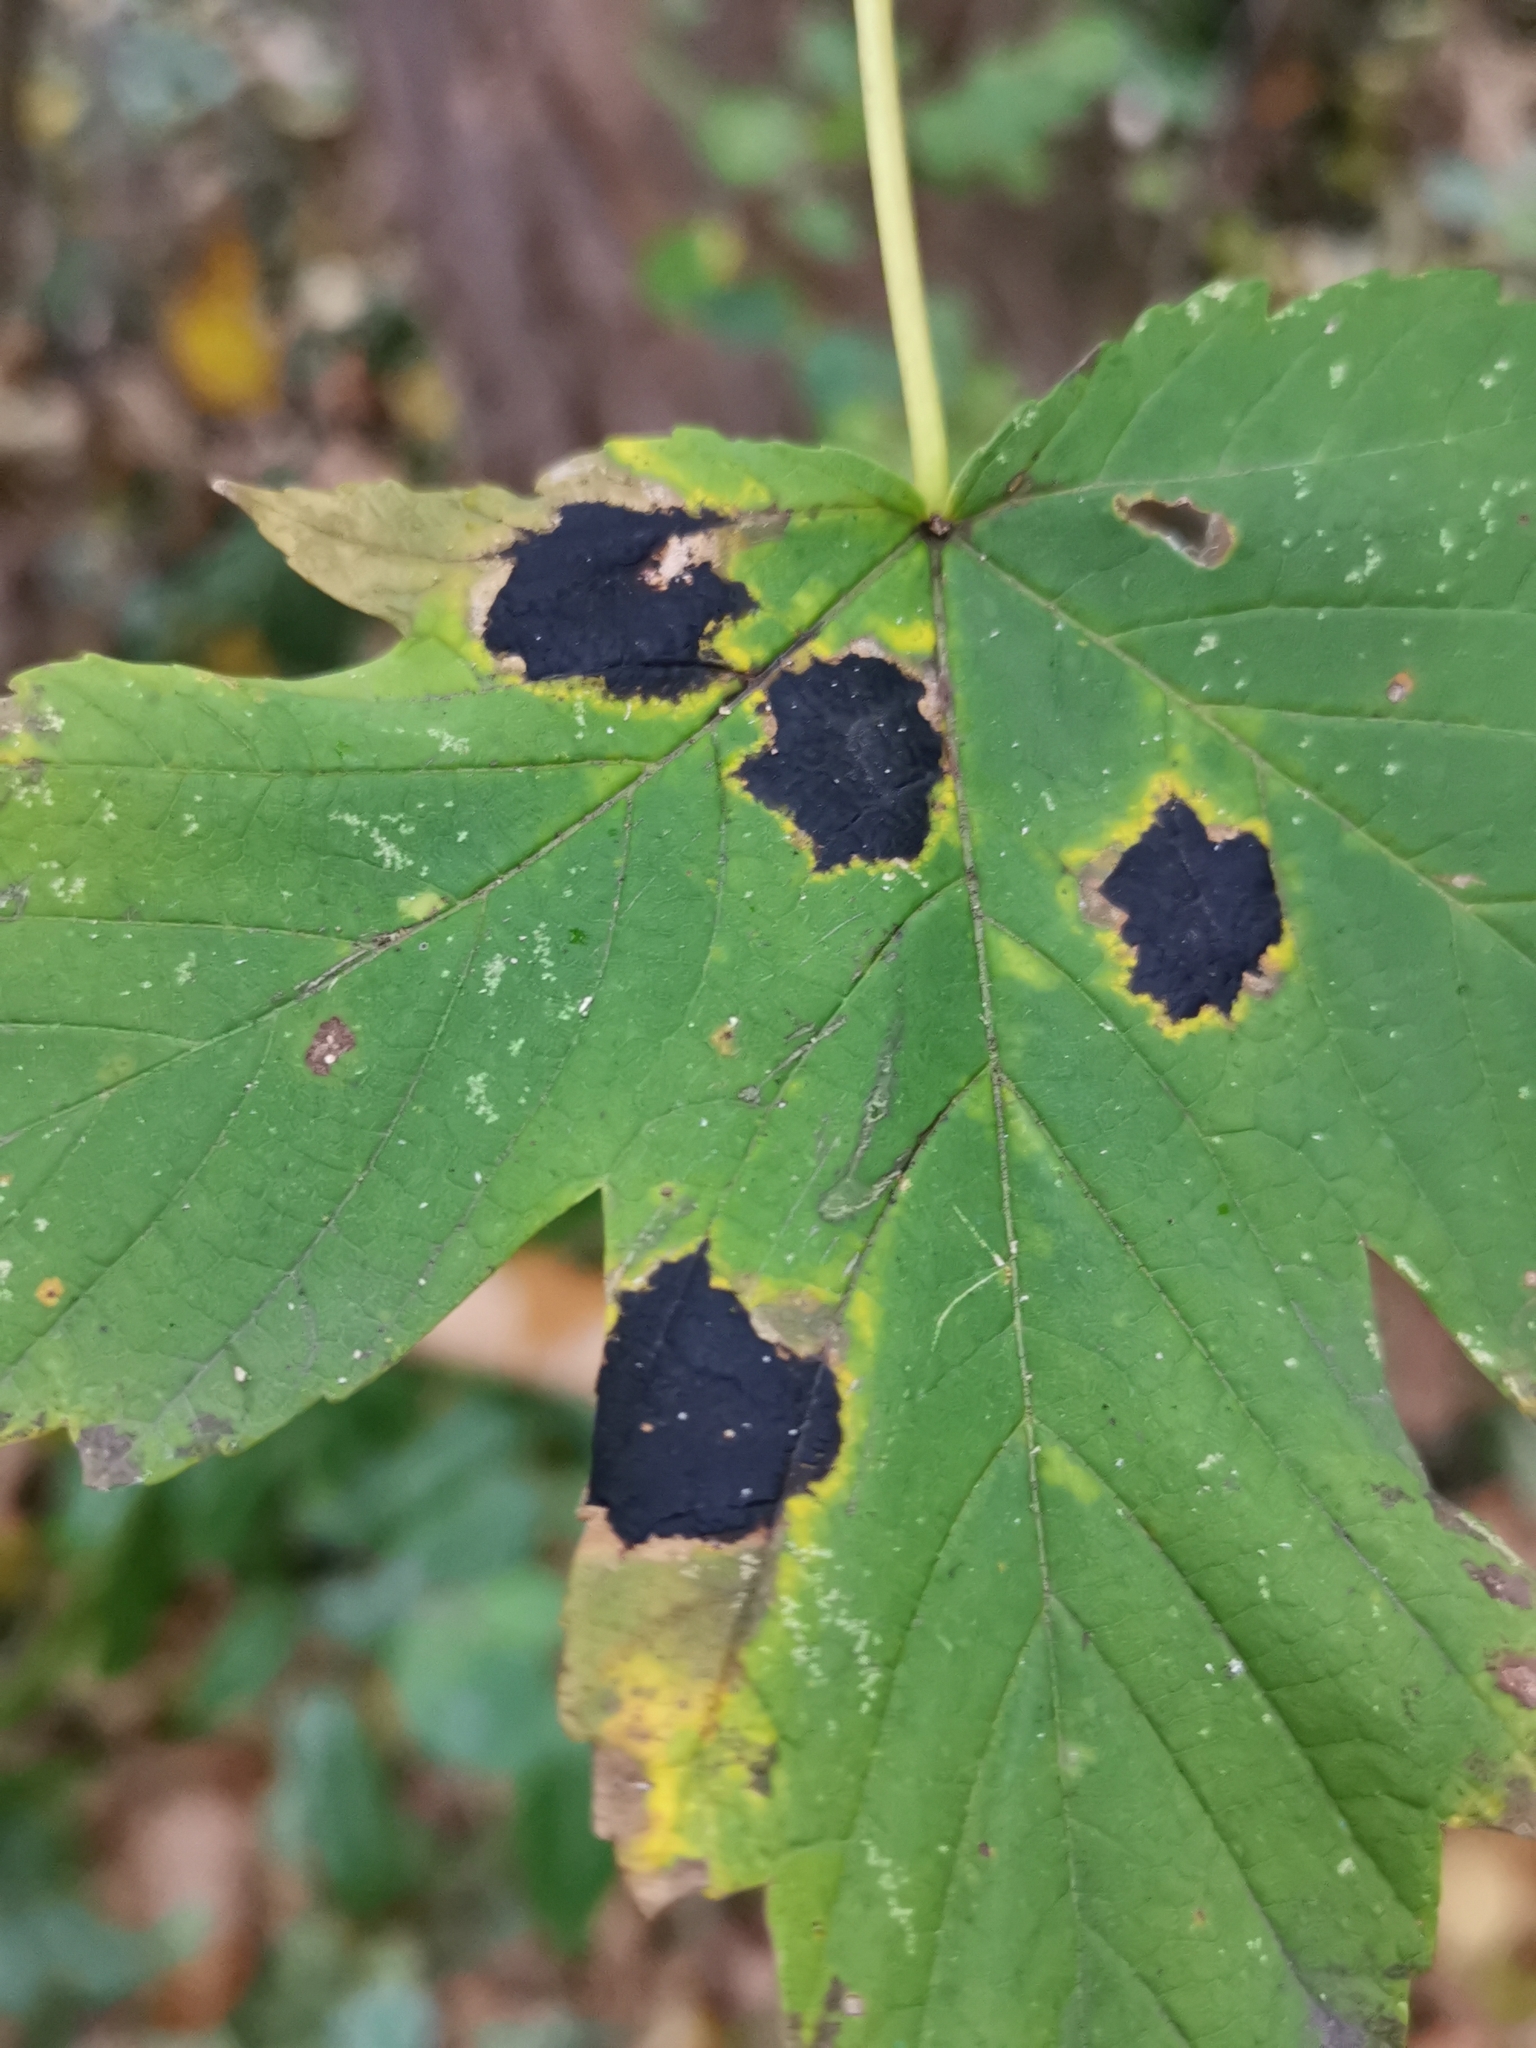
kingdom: Fungi
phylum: Ascomycota
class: Leotiomycetes
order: Rhytismatales
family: Rhytismataceae
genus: Rhytisma
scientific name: Rhytisma acerinum
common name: European tar spot
